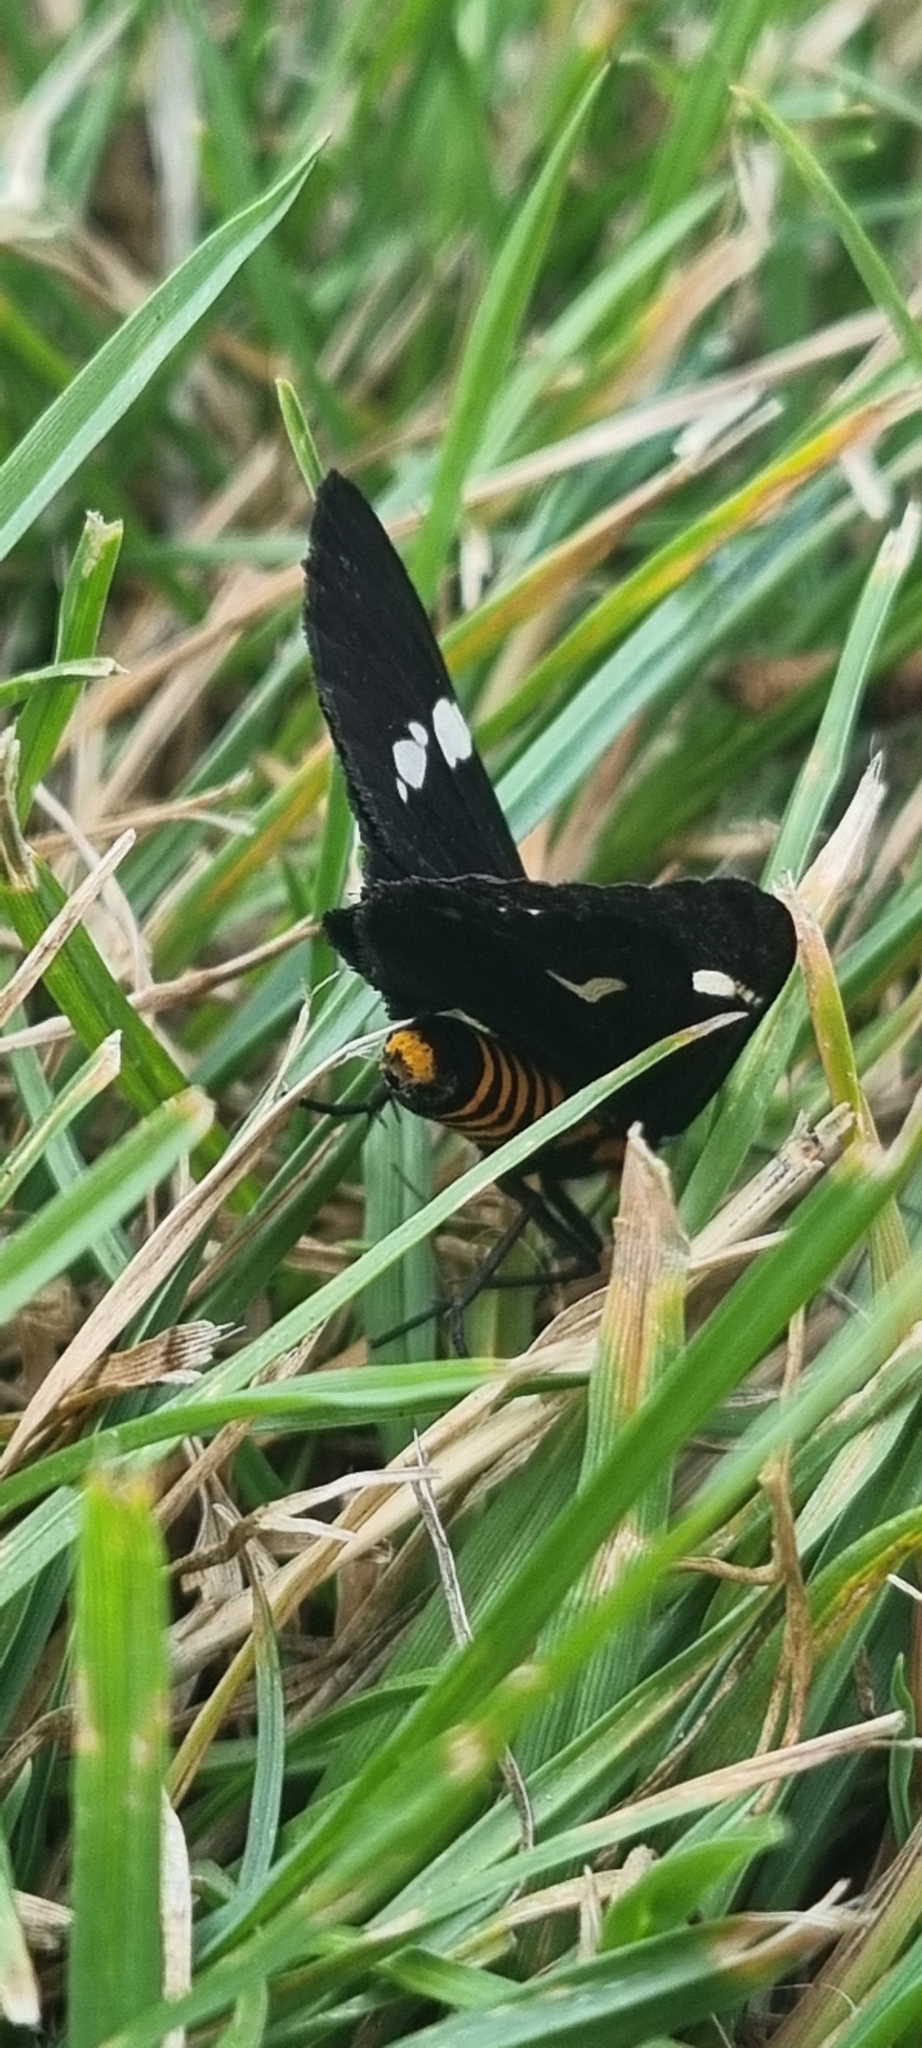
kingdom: Animalia
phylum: Arthropoda
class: Insecta
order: Lepidoptera
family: Erebidae
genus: Nyctemera
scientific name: Nyctemera annulatum
